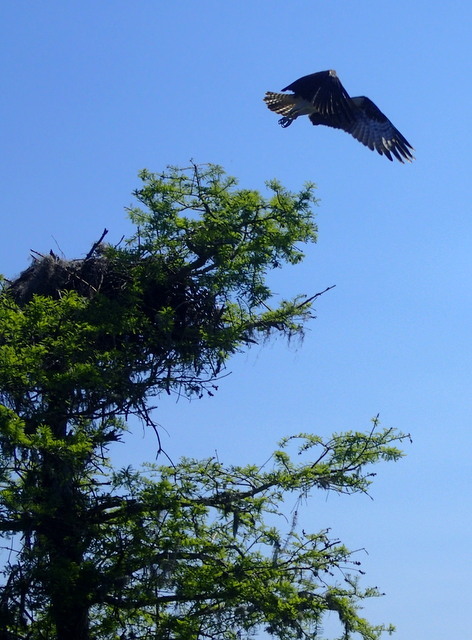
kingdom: Animalia
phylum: Chordata
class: Aves
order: Accipitriformes
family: Pandionidae
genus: Pandion
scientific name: Pandion haliaetus
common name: Osprey
